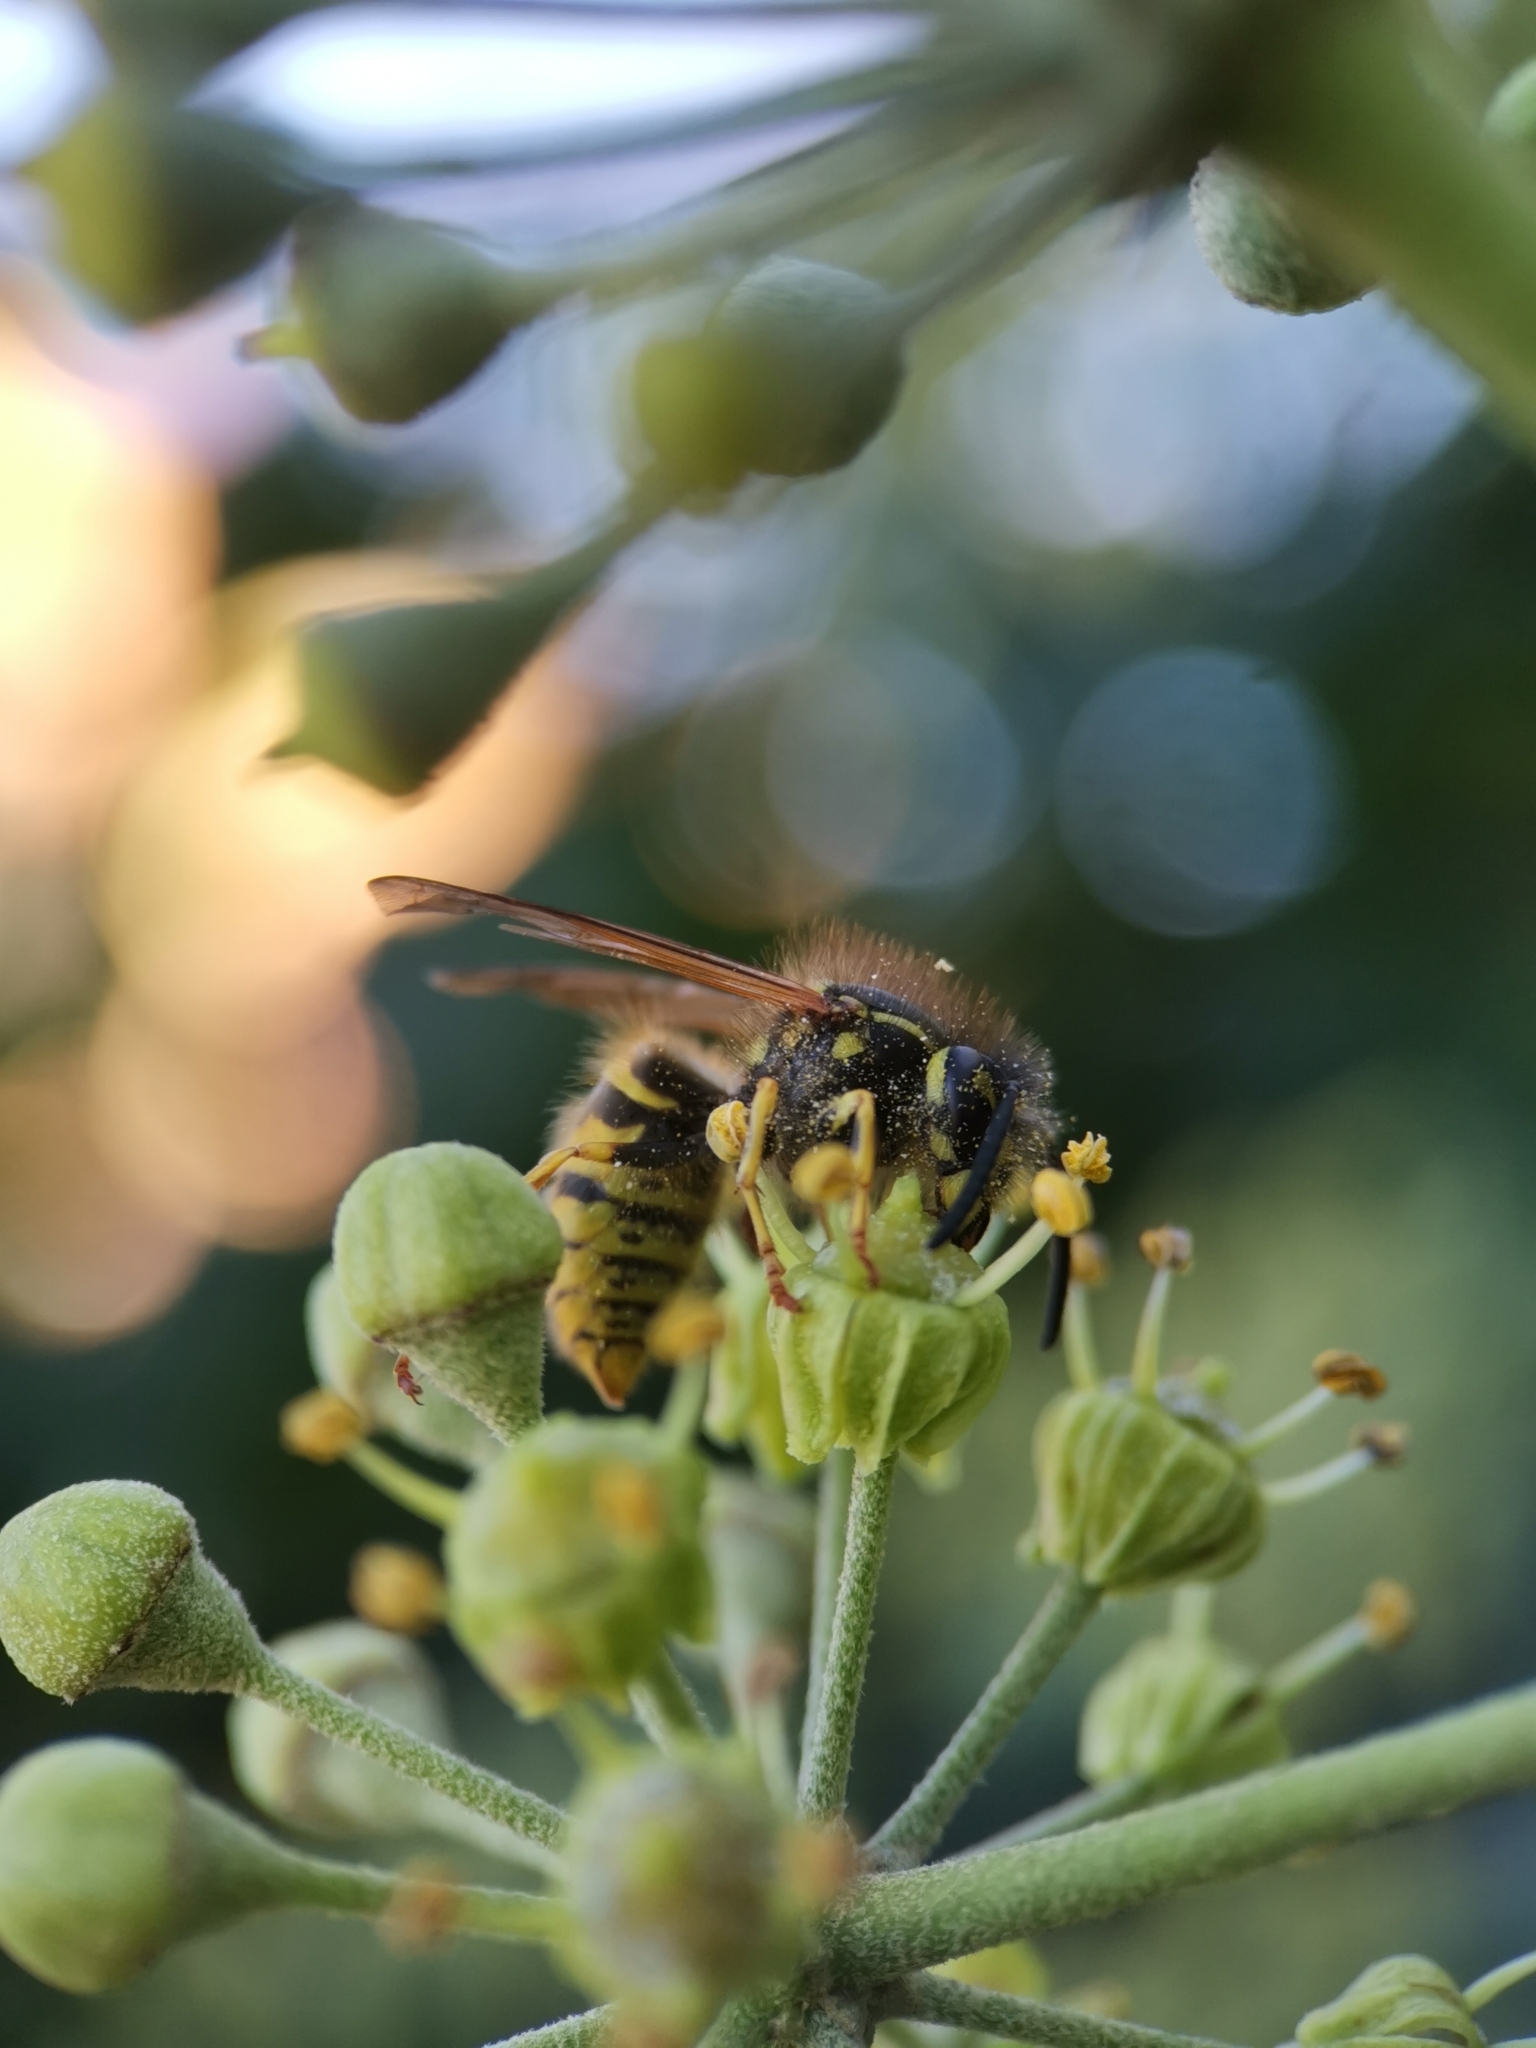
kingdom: Animalia
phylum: Arthropoda
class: Insecta
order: Hymenoptera
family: Vespidae
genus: Vespula
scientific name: Vespula vulgaris
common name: Common wasp
